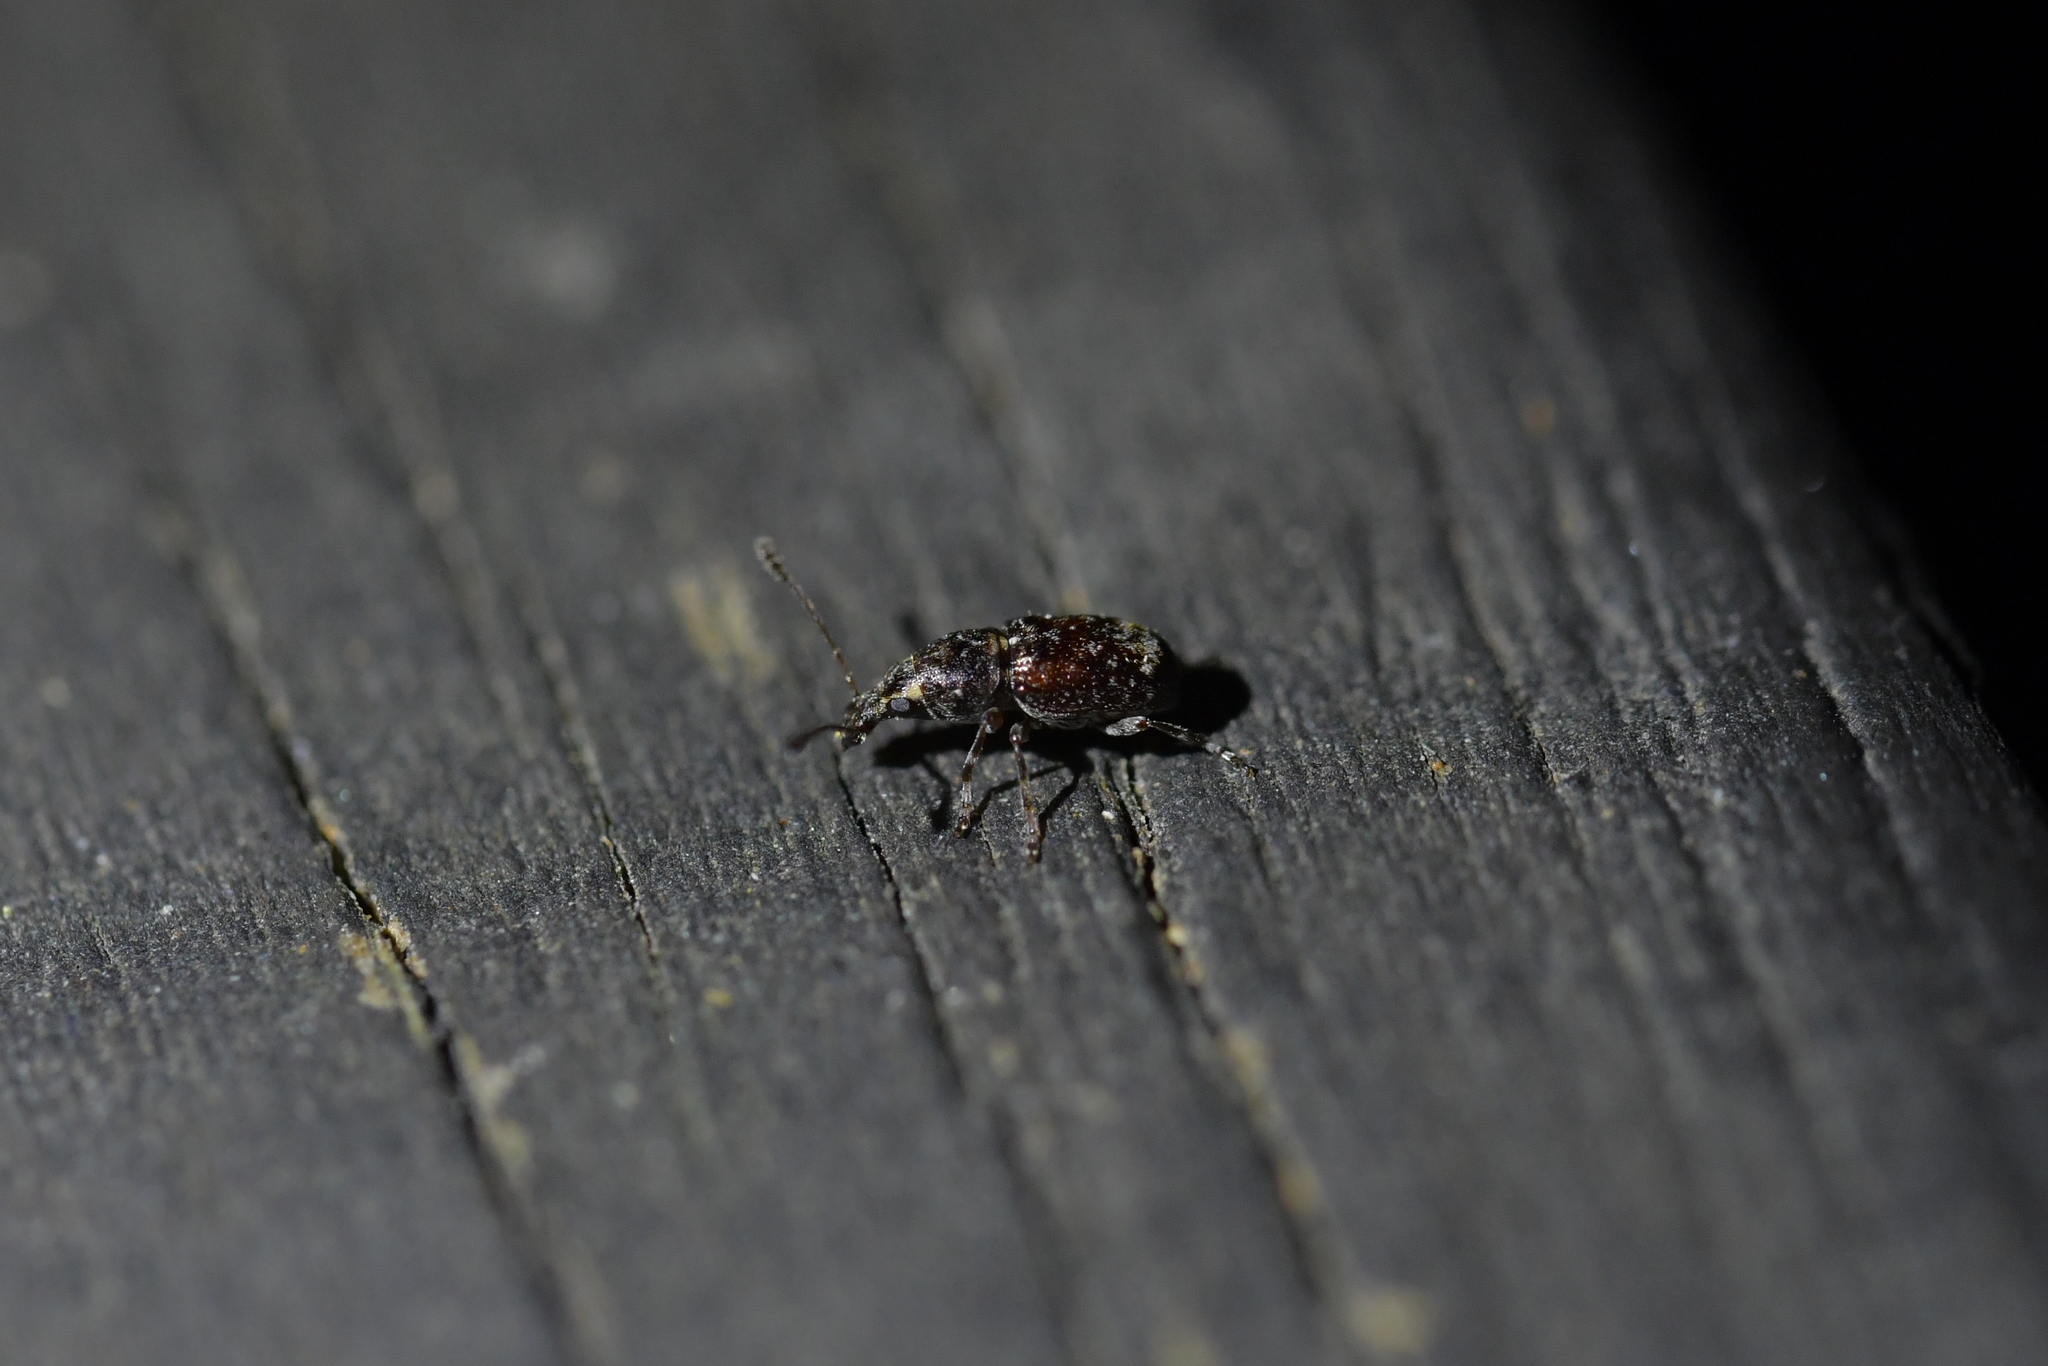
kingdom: Animalia
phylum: Arthropoda
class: Insecta
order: Coleoptera
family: Anthribidae
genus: Sharpius
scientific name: Sharpius
